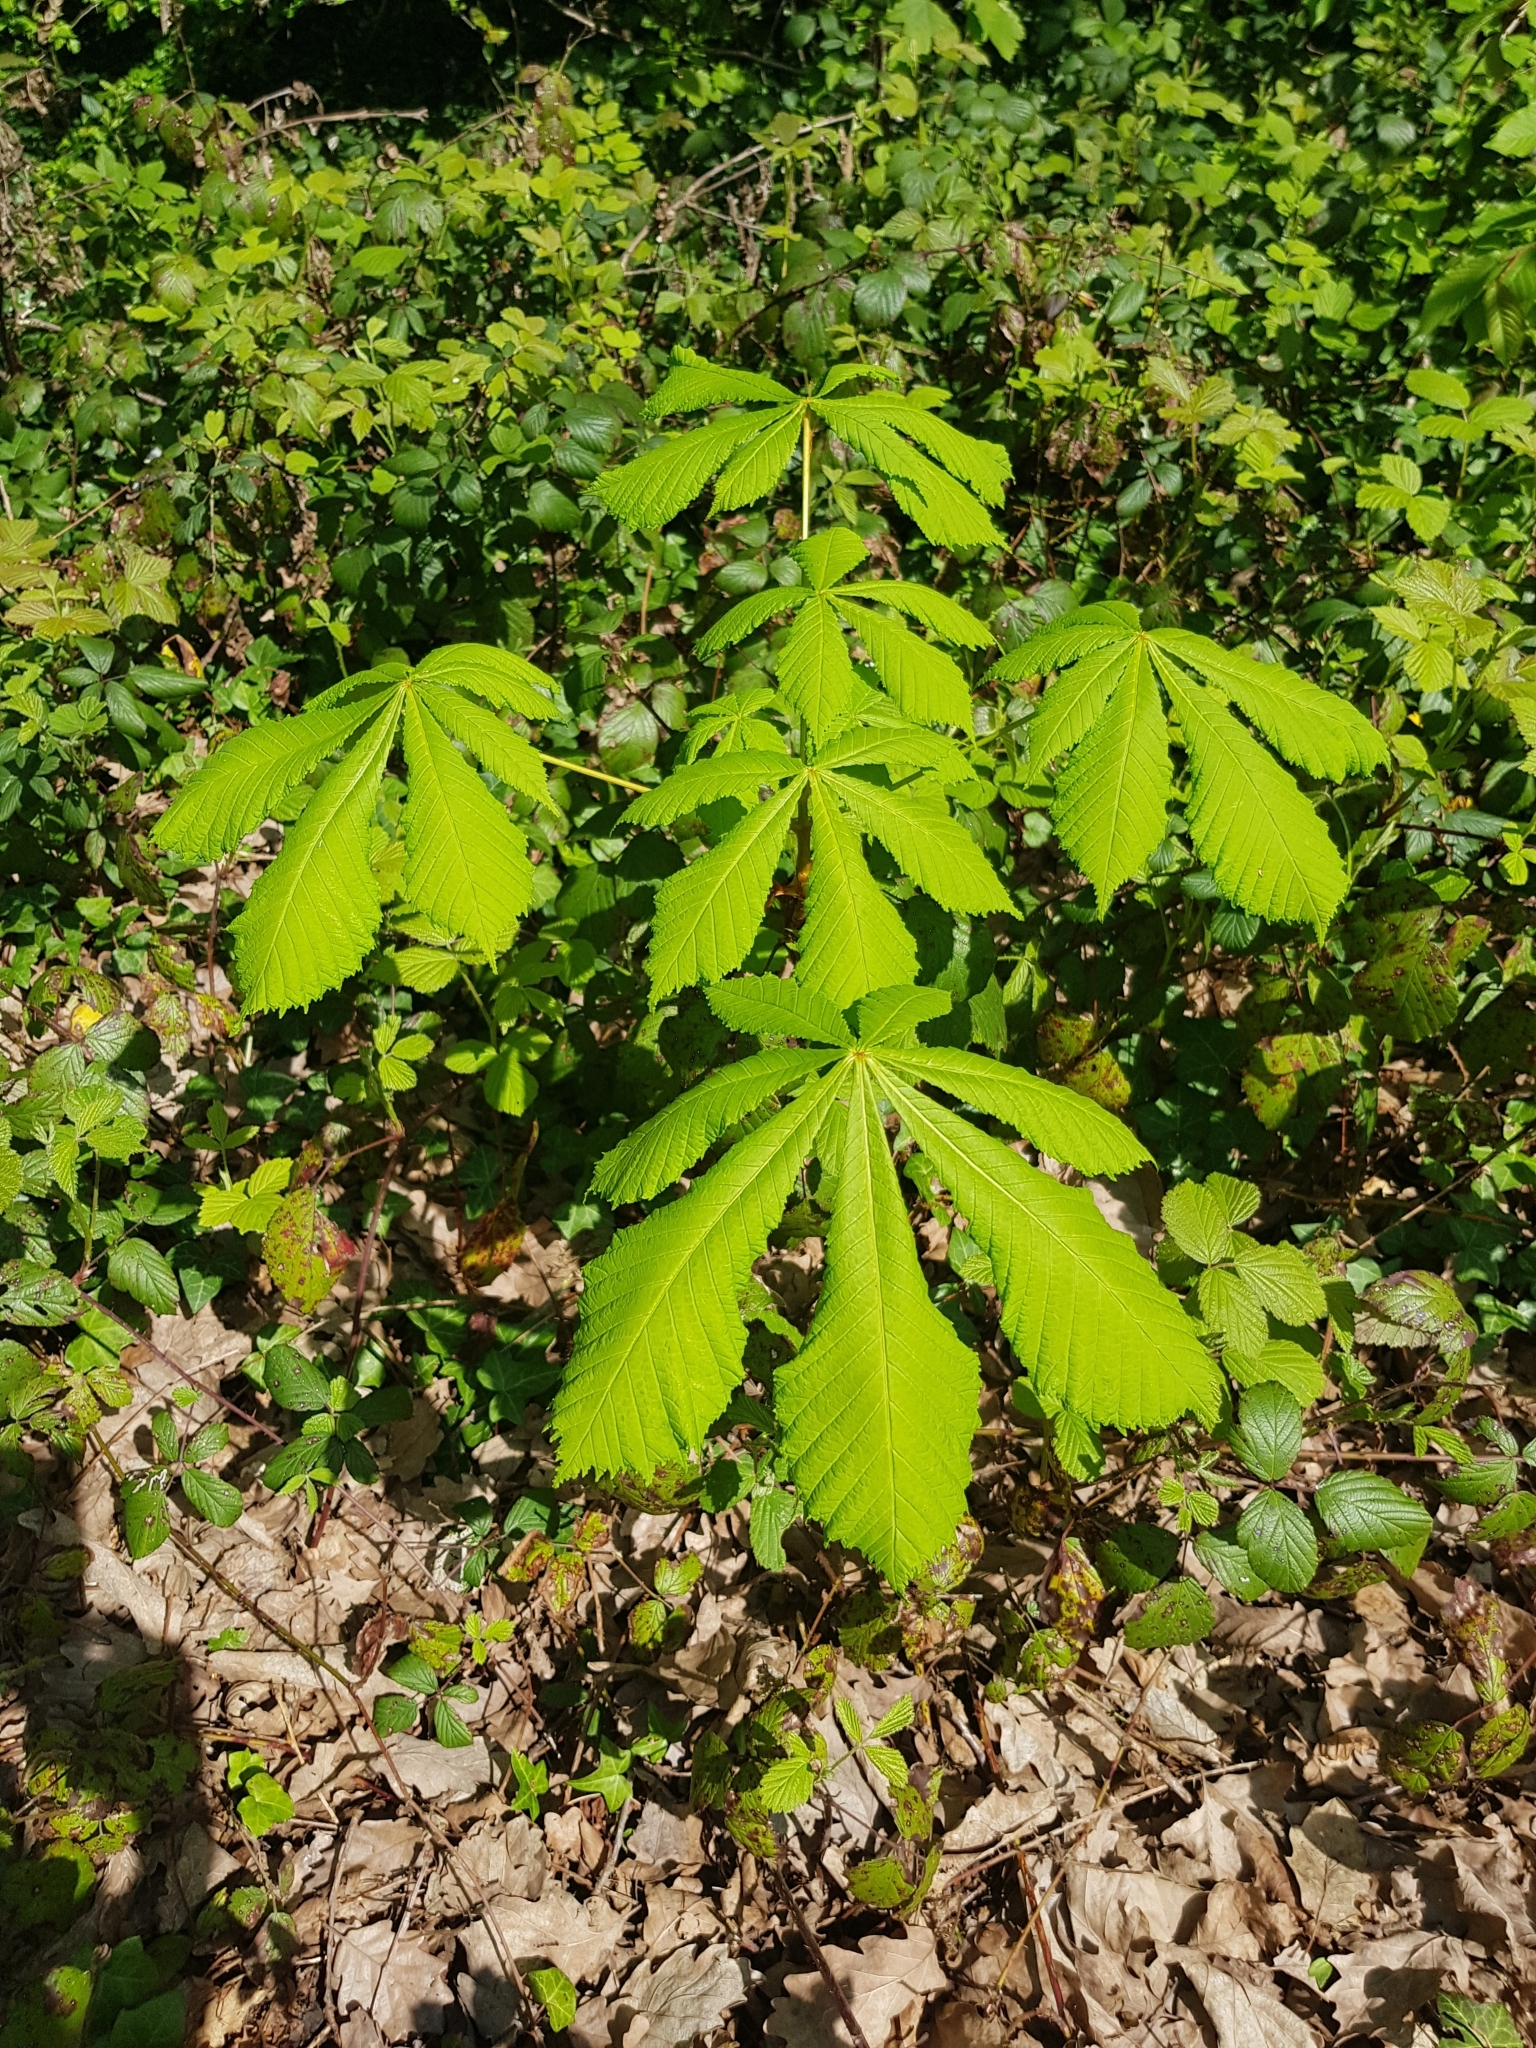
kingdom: Plantae
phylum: Tracheophyta
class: Magnoliopsida
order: Sapindales
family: Sapindaceae
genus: Aesculus
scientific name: Aesculus hippocastanum
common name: Horse-chestnut
